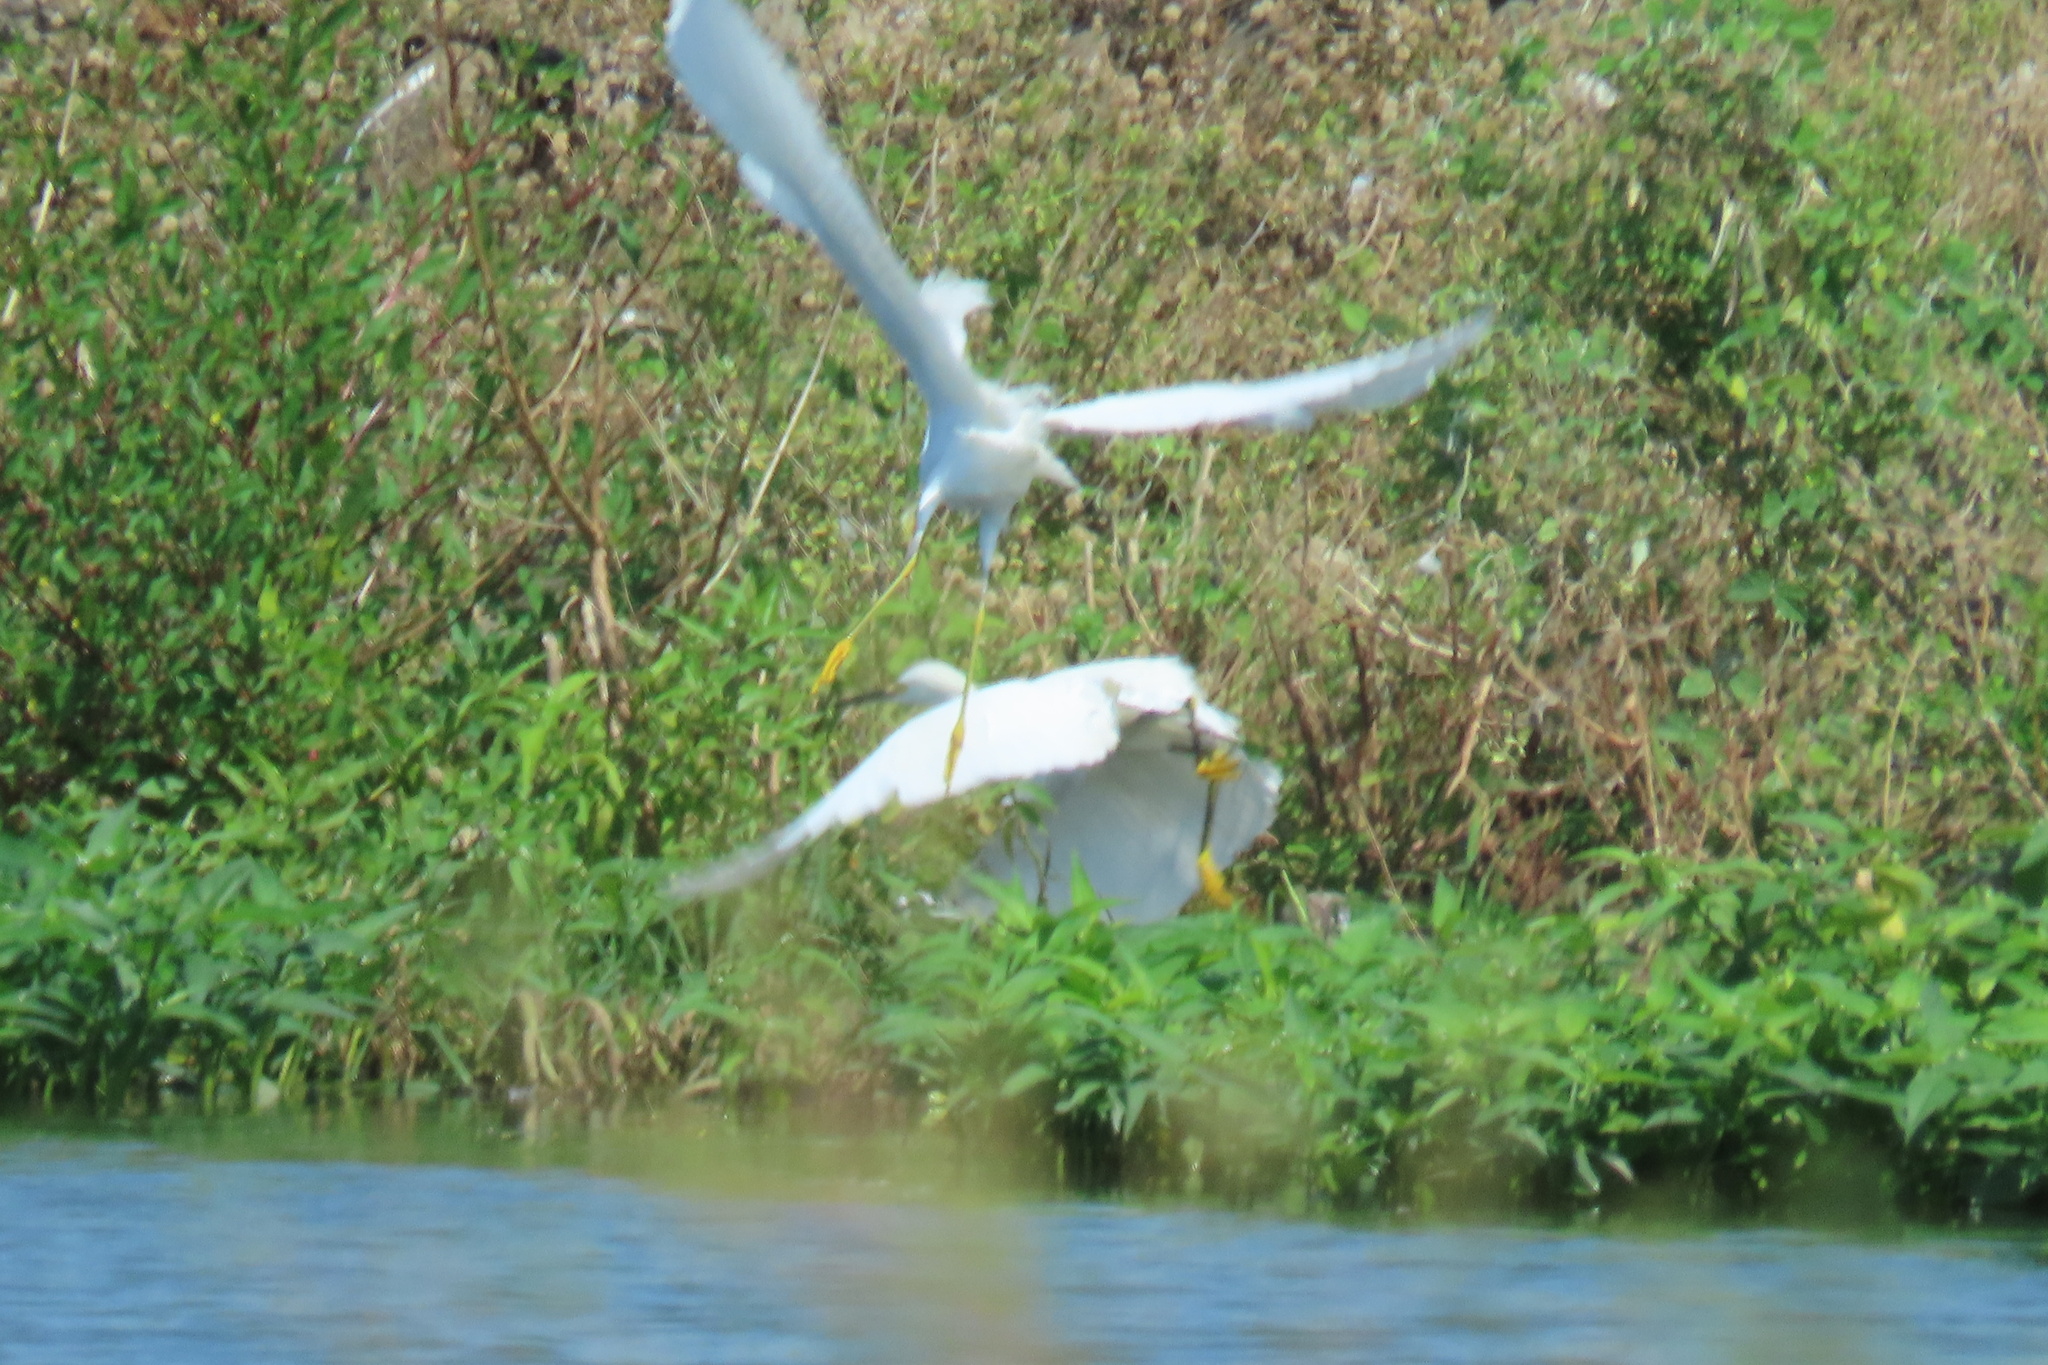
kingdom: Animalia
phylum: Chordata
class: Aves
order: Pelecaniformes
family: Ardeidae
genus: Egretta
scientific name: Egretta thula
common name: Snowy egret
